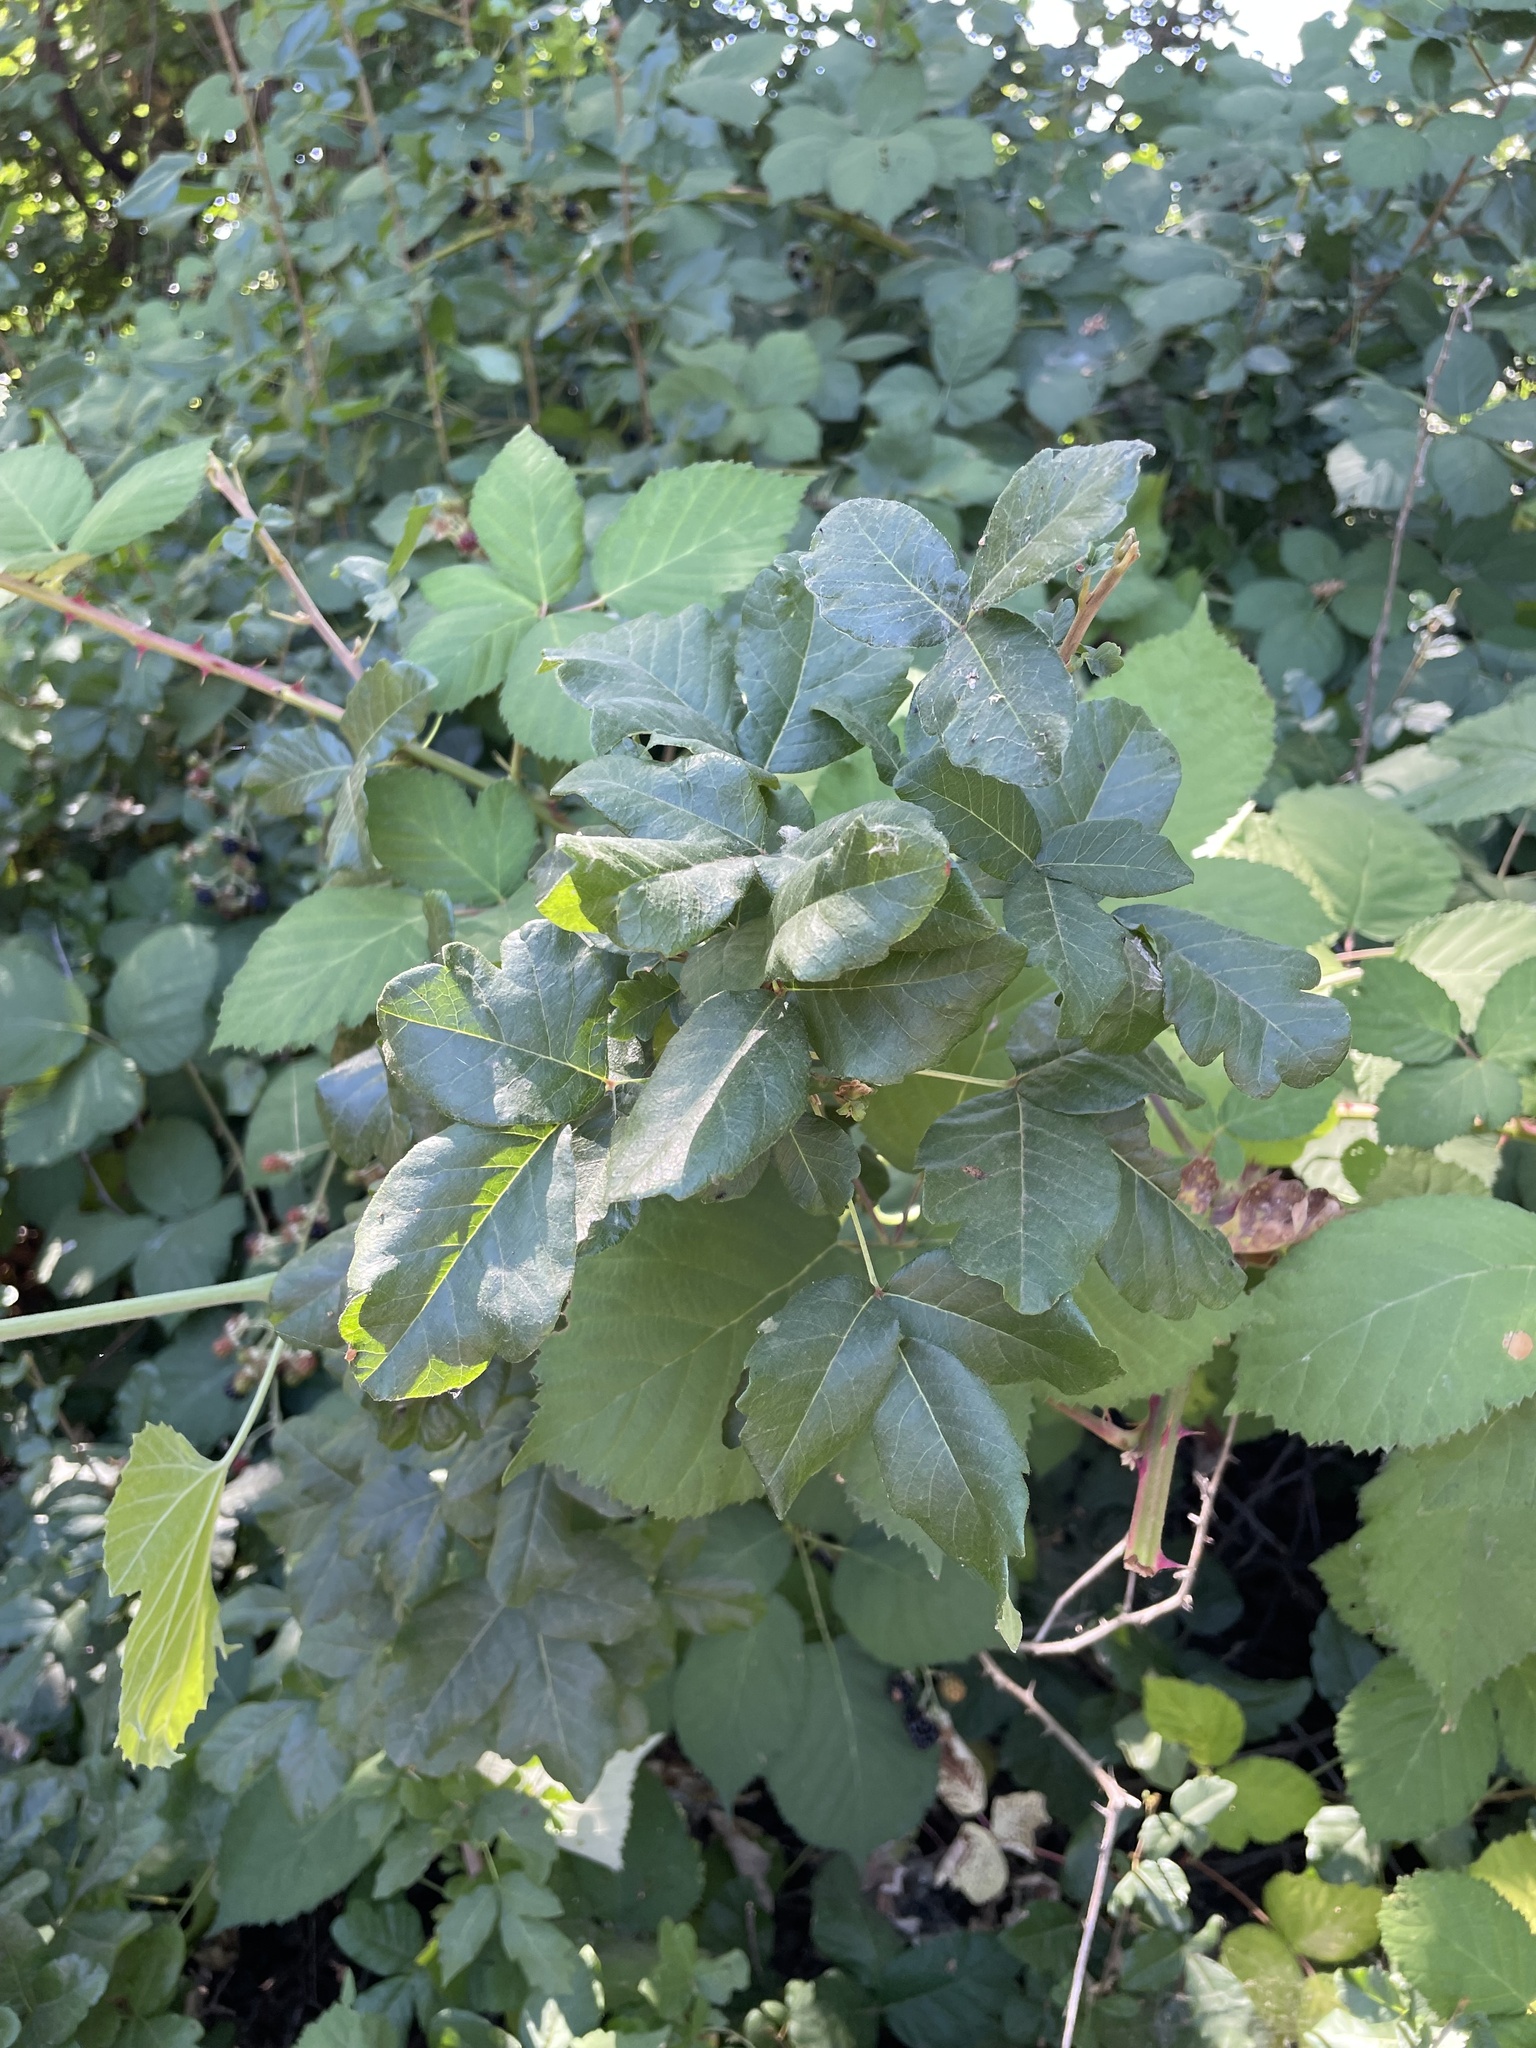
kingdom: Plantae
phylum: Tracheophyta
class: Magnoliopsida
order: Sapindales
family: Anacardiaceae
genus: Toxicodendron
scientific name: Toxicodendron diversilobum
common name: Pacific poison-oak
